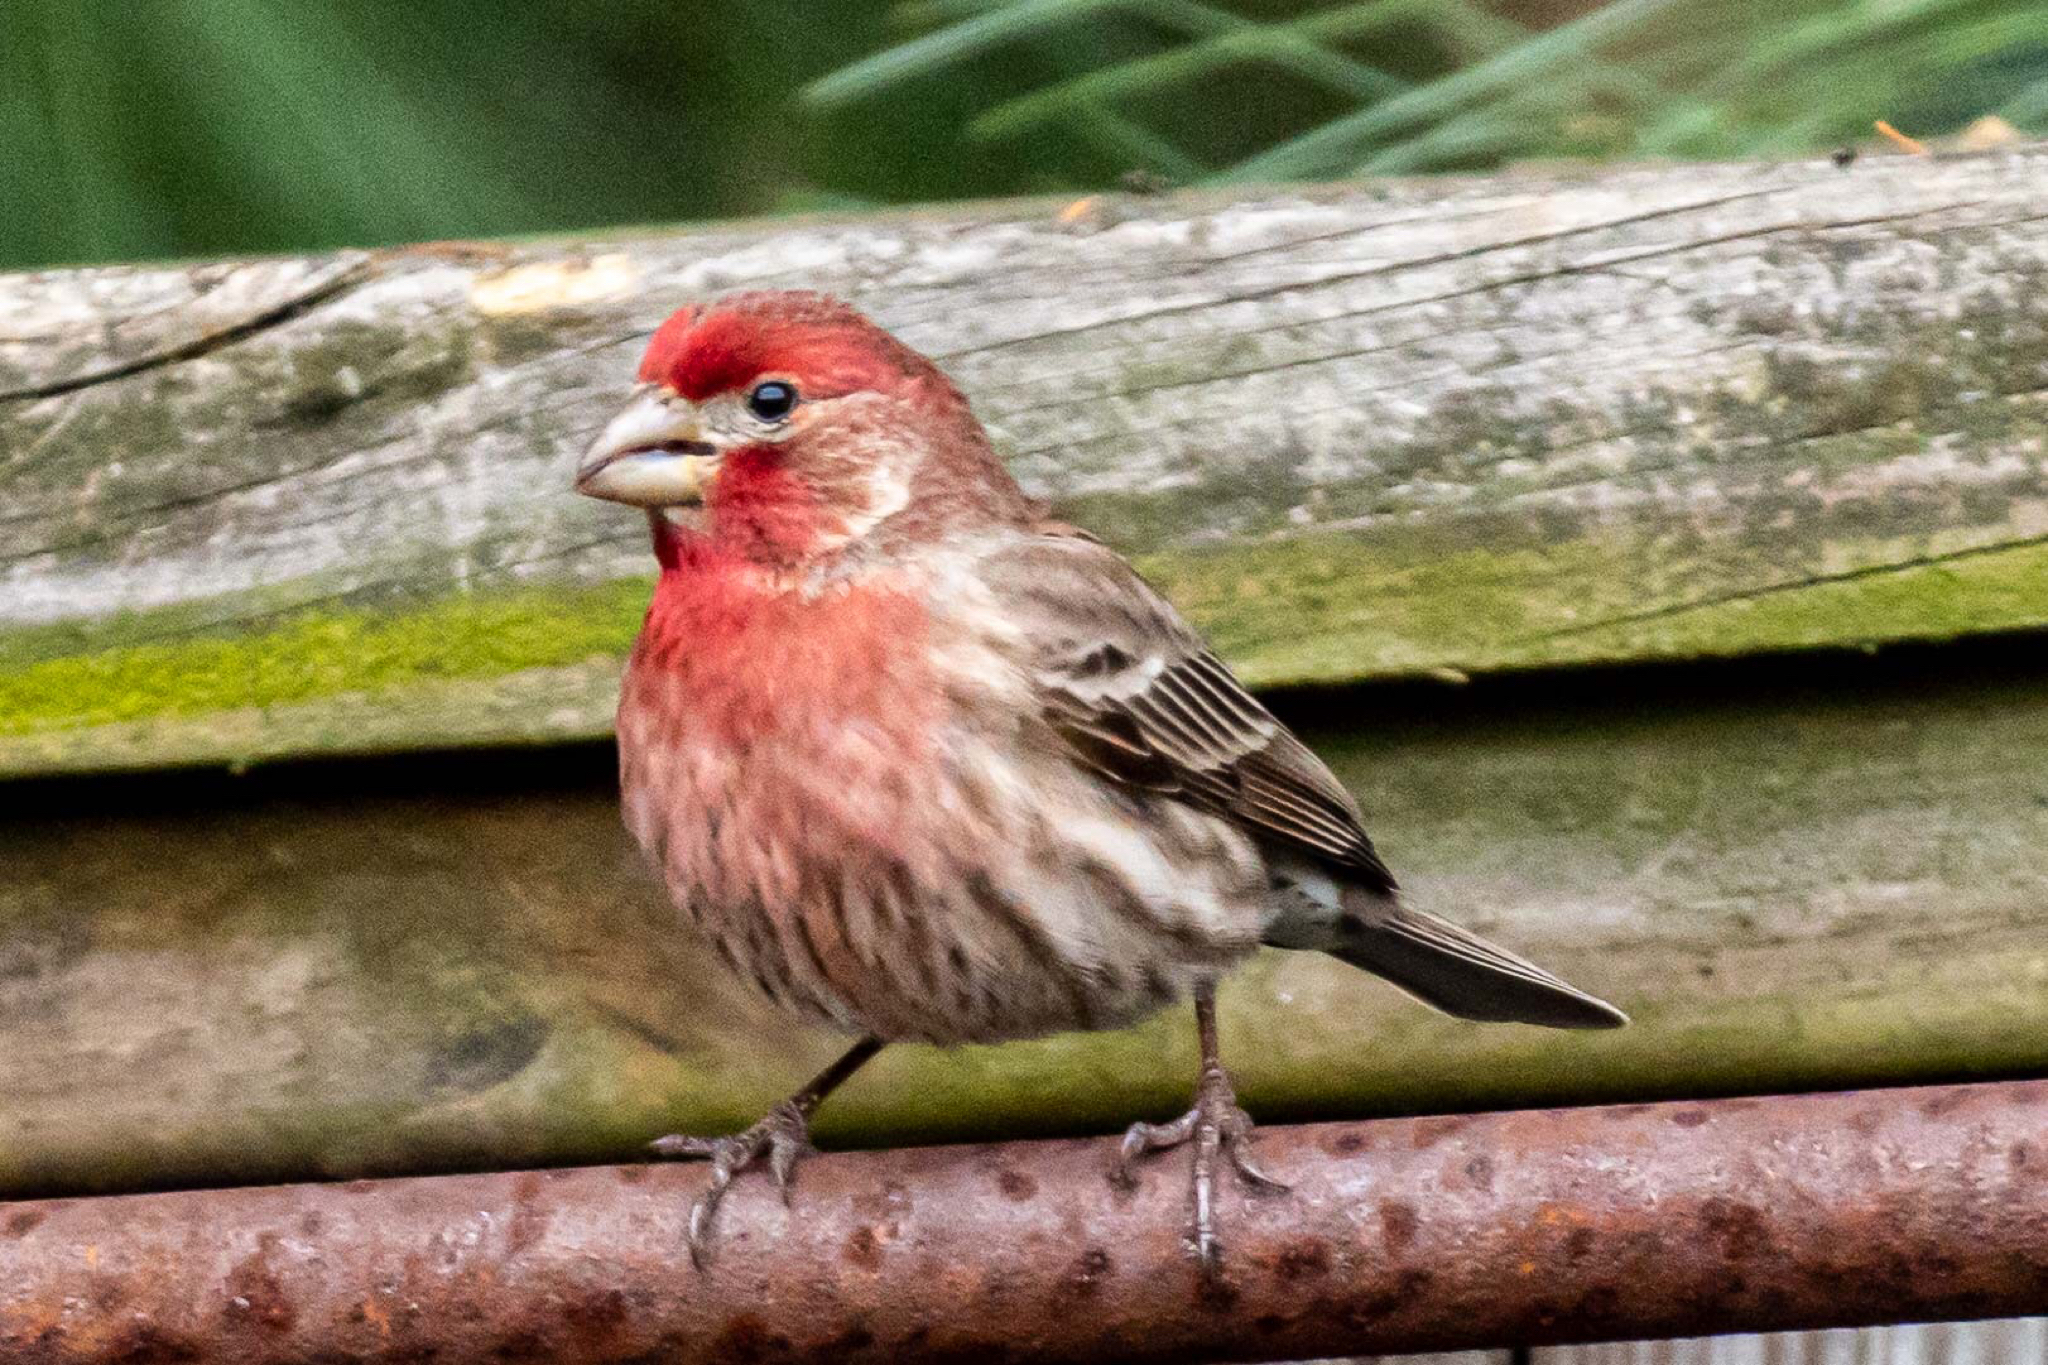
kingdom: Animalia
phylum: Chordata
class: Aves
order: Passeriformes
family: Fringillidae
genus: Haemorhous
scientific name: Haemorhous mexicanus
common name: House finch
